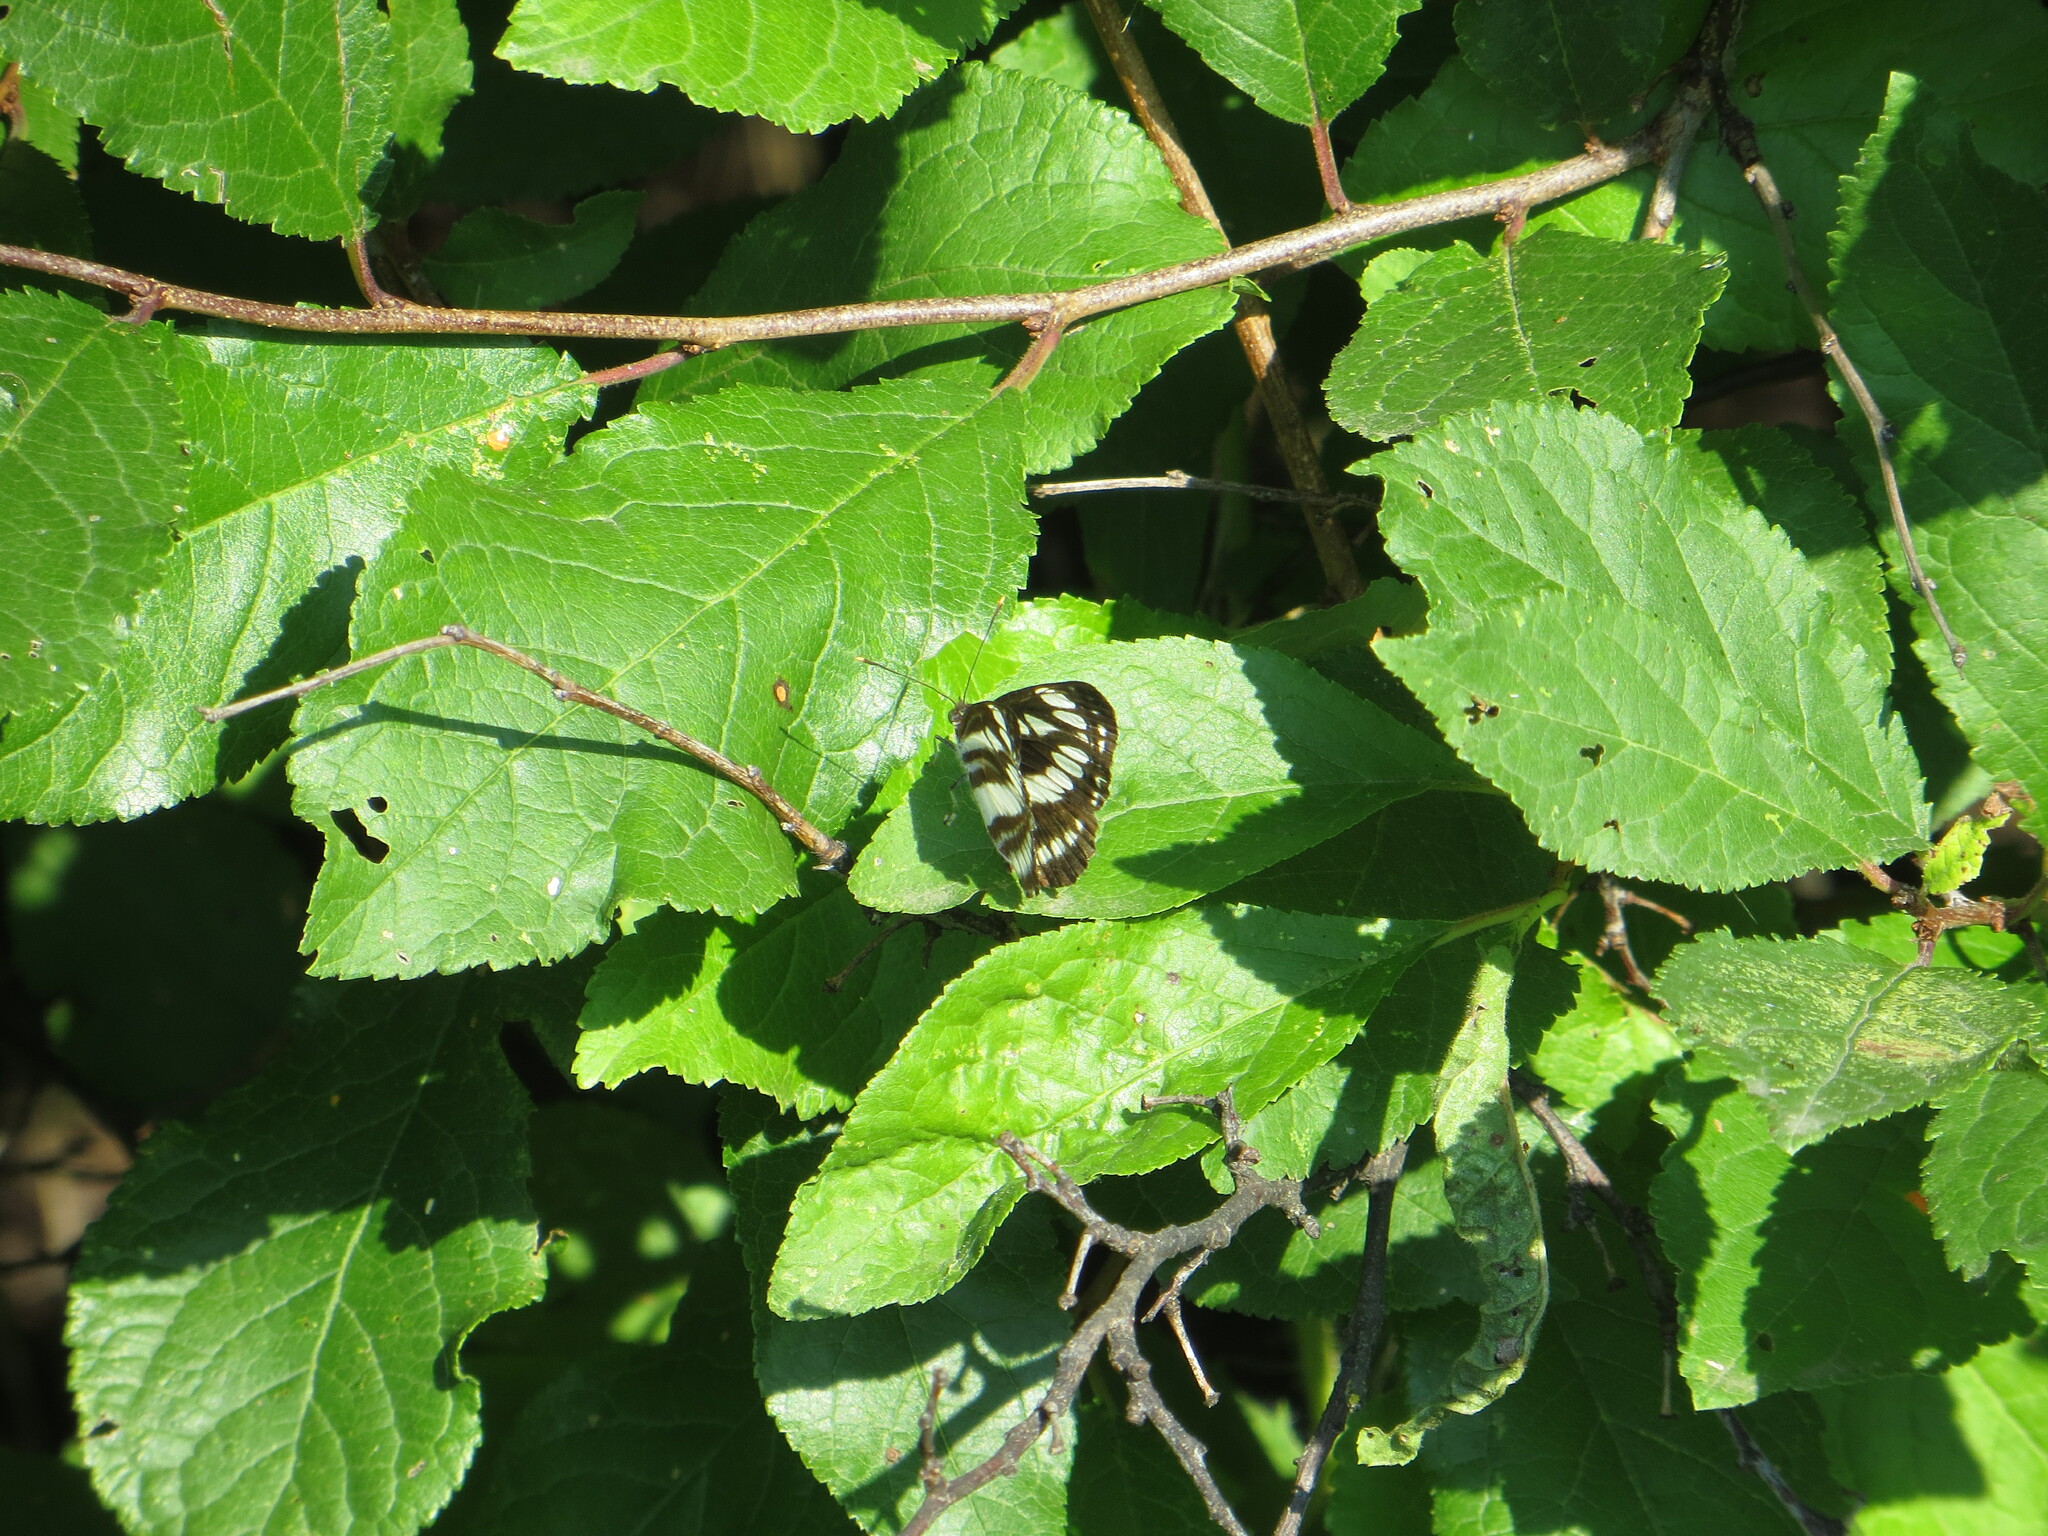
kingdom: Animalia
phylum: Arthropoda
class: Insecta
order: Lepidoptera
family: Nymphalidae
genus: Neptis
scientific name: Neptis sappho
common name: Common glider
